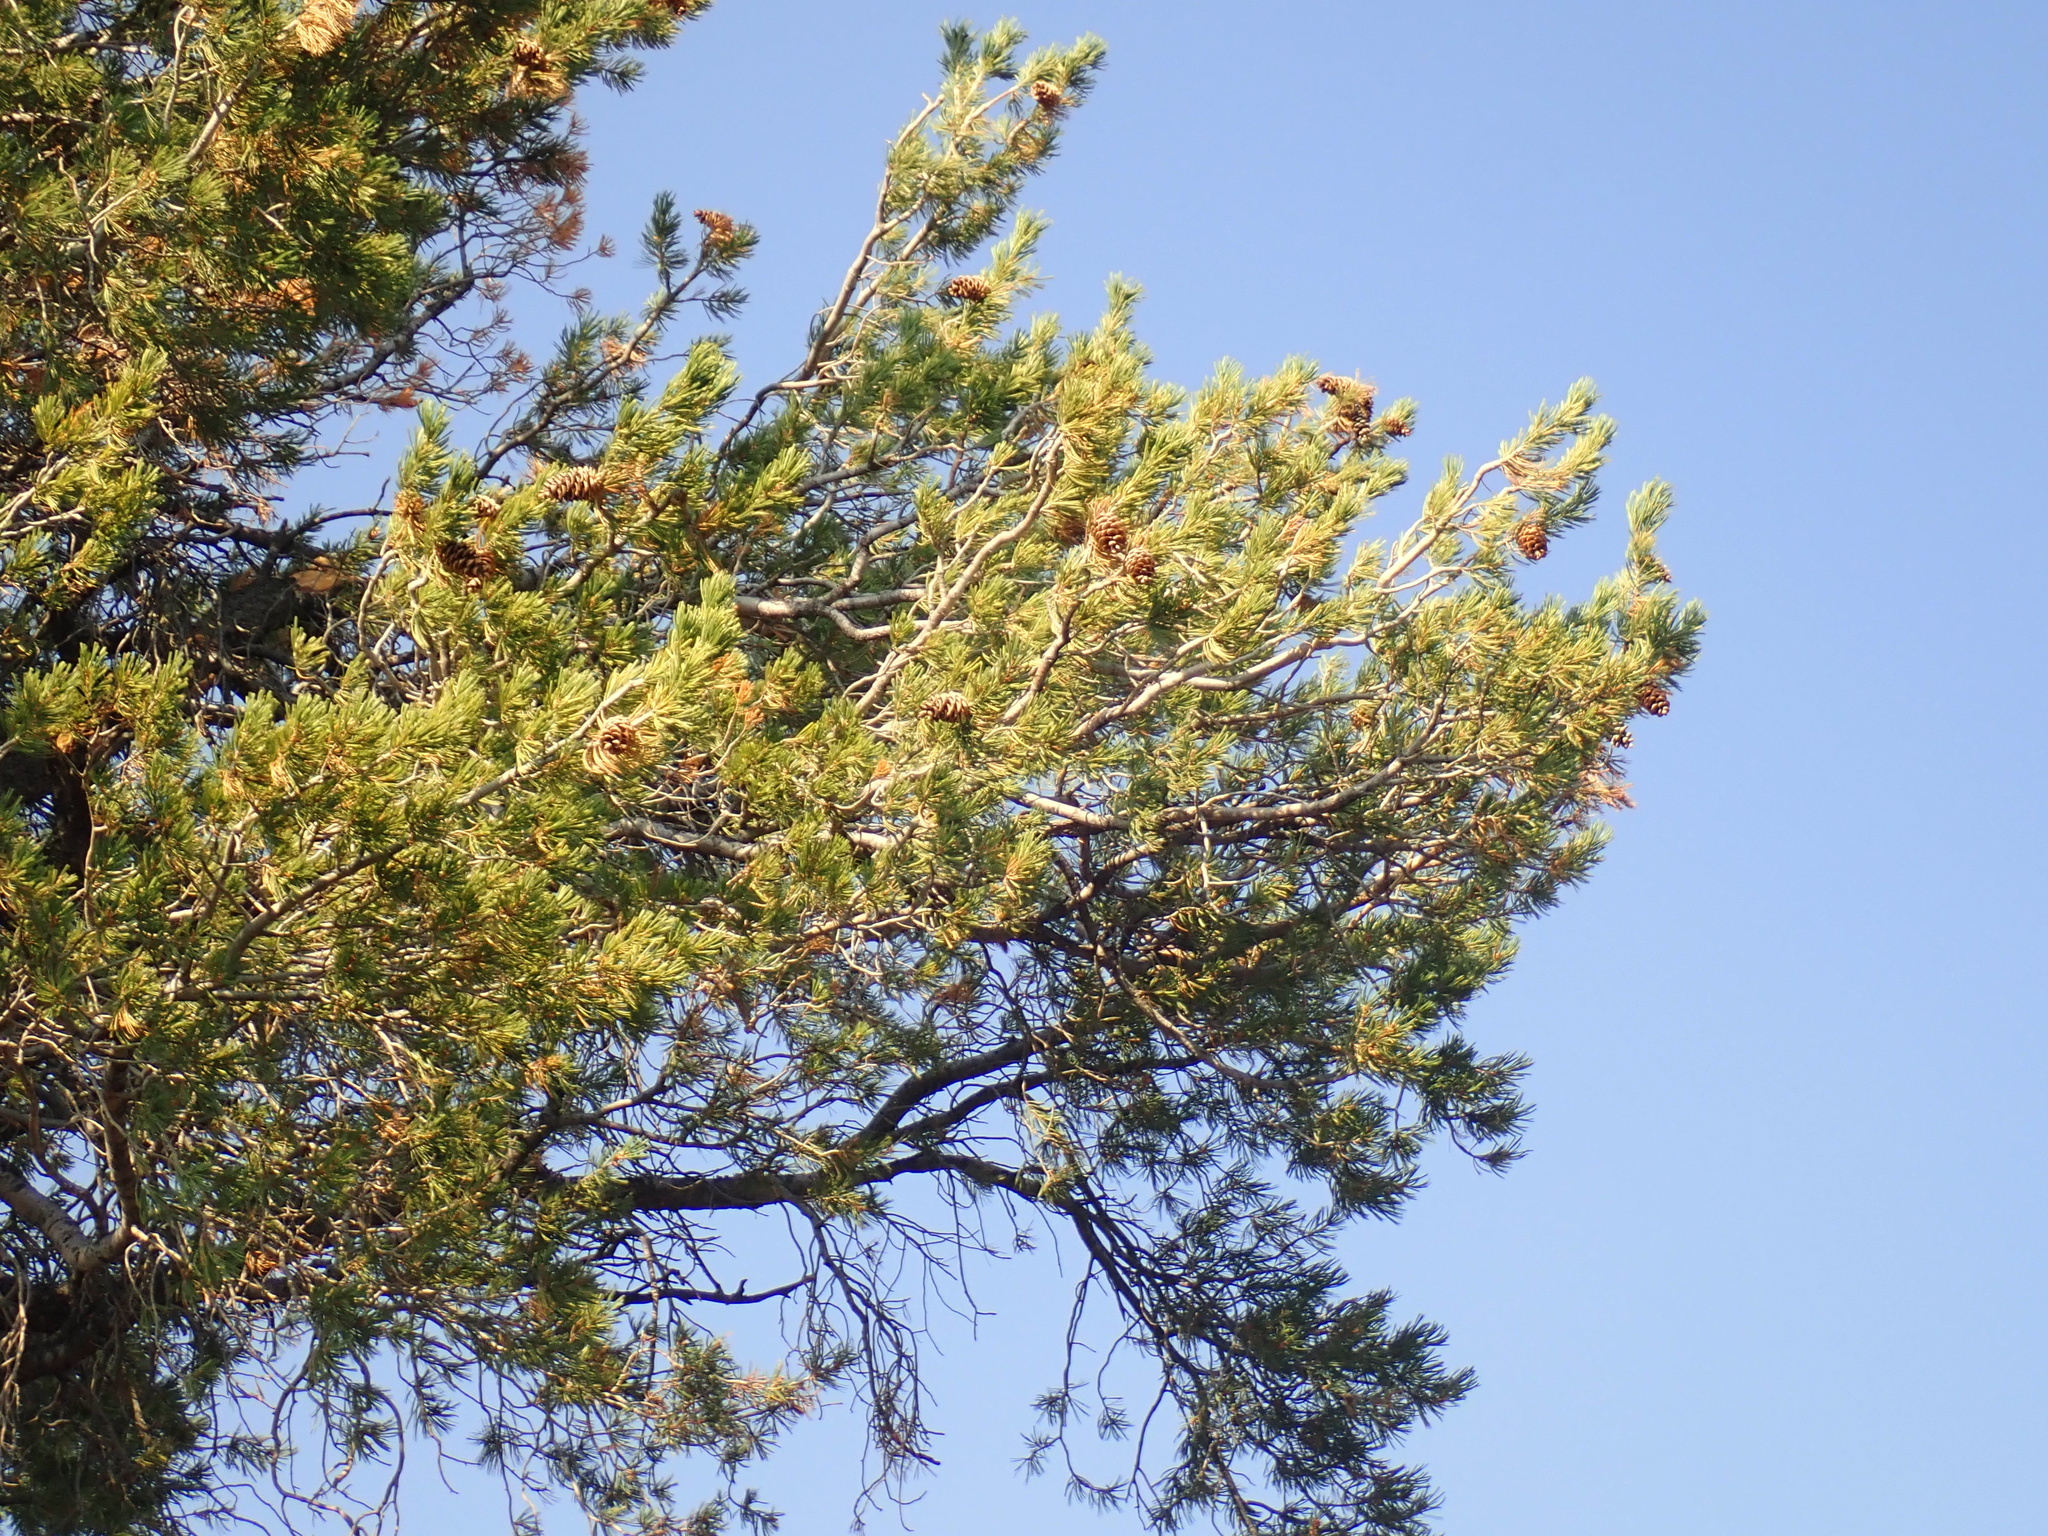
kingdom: Plantae
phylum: Tracheophyta
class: Pinopsida
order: Pinales
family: Pinaceae
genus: Pinus
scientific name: Pinus flexilis
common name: Limber pine
